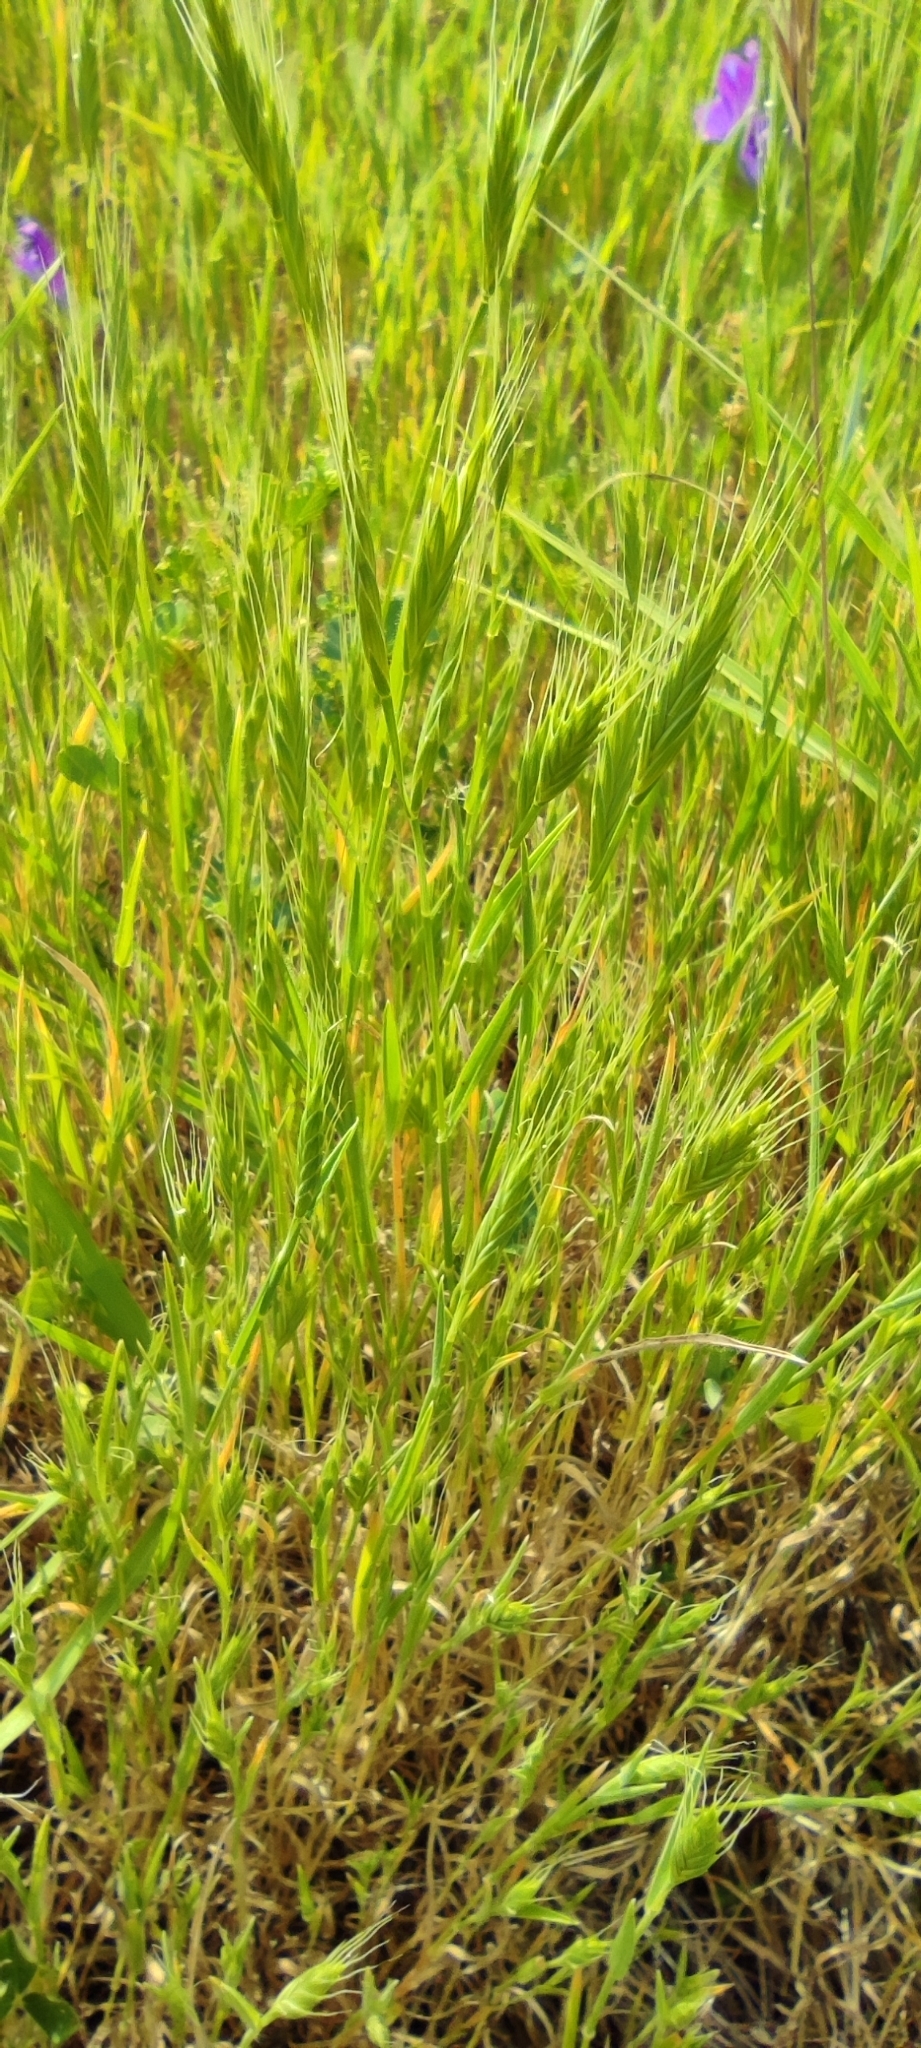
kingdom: Plantae
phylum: Tracheophyta
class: Liliopsida
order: Poales
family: Poaceae
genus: Brachypodium
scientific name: Brachypodium distachyon
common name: Stiff brome
